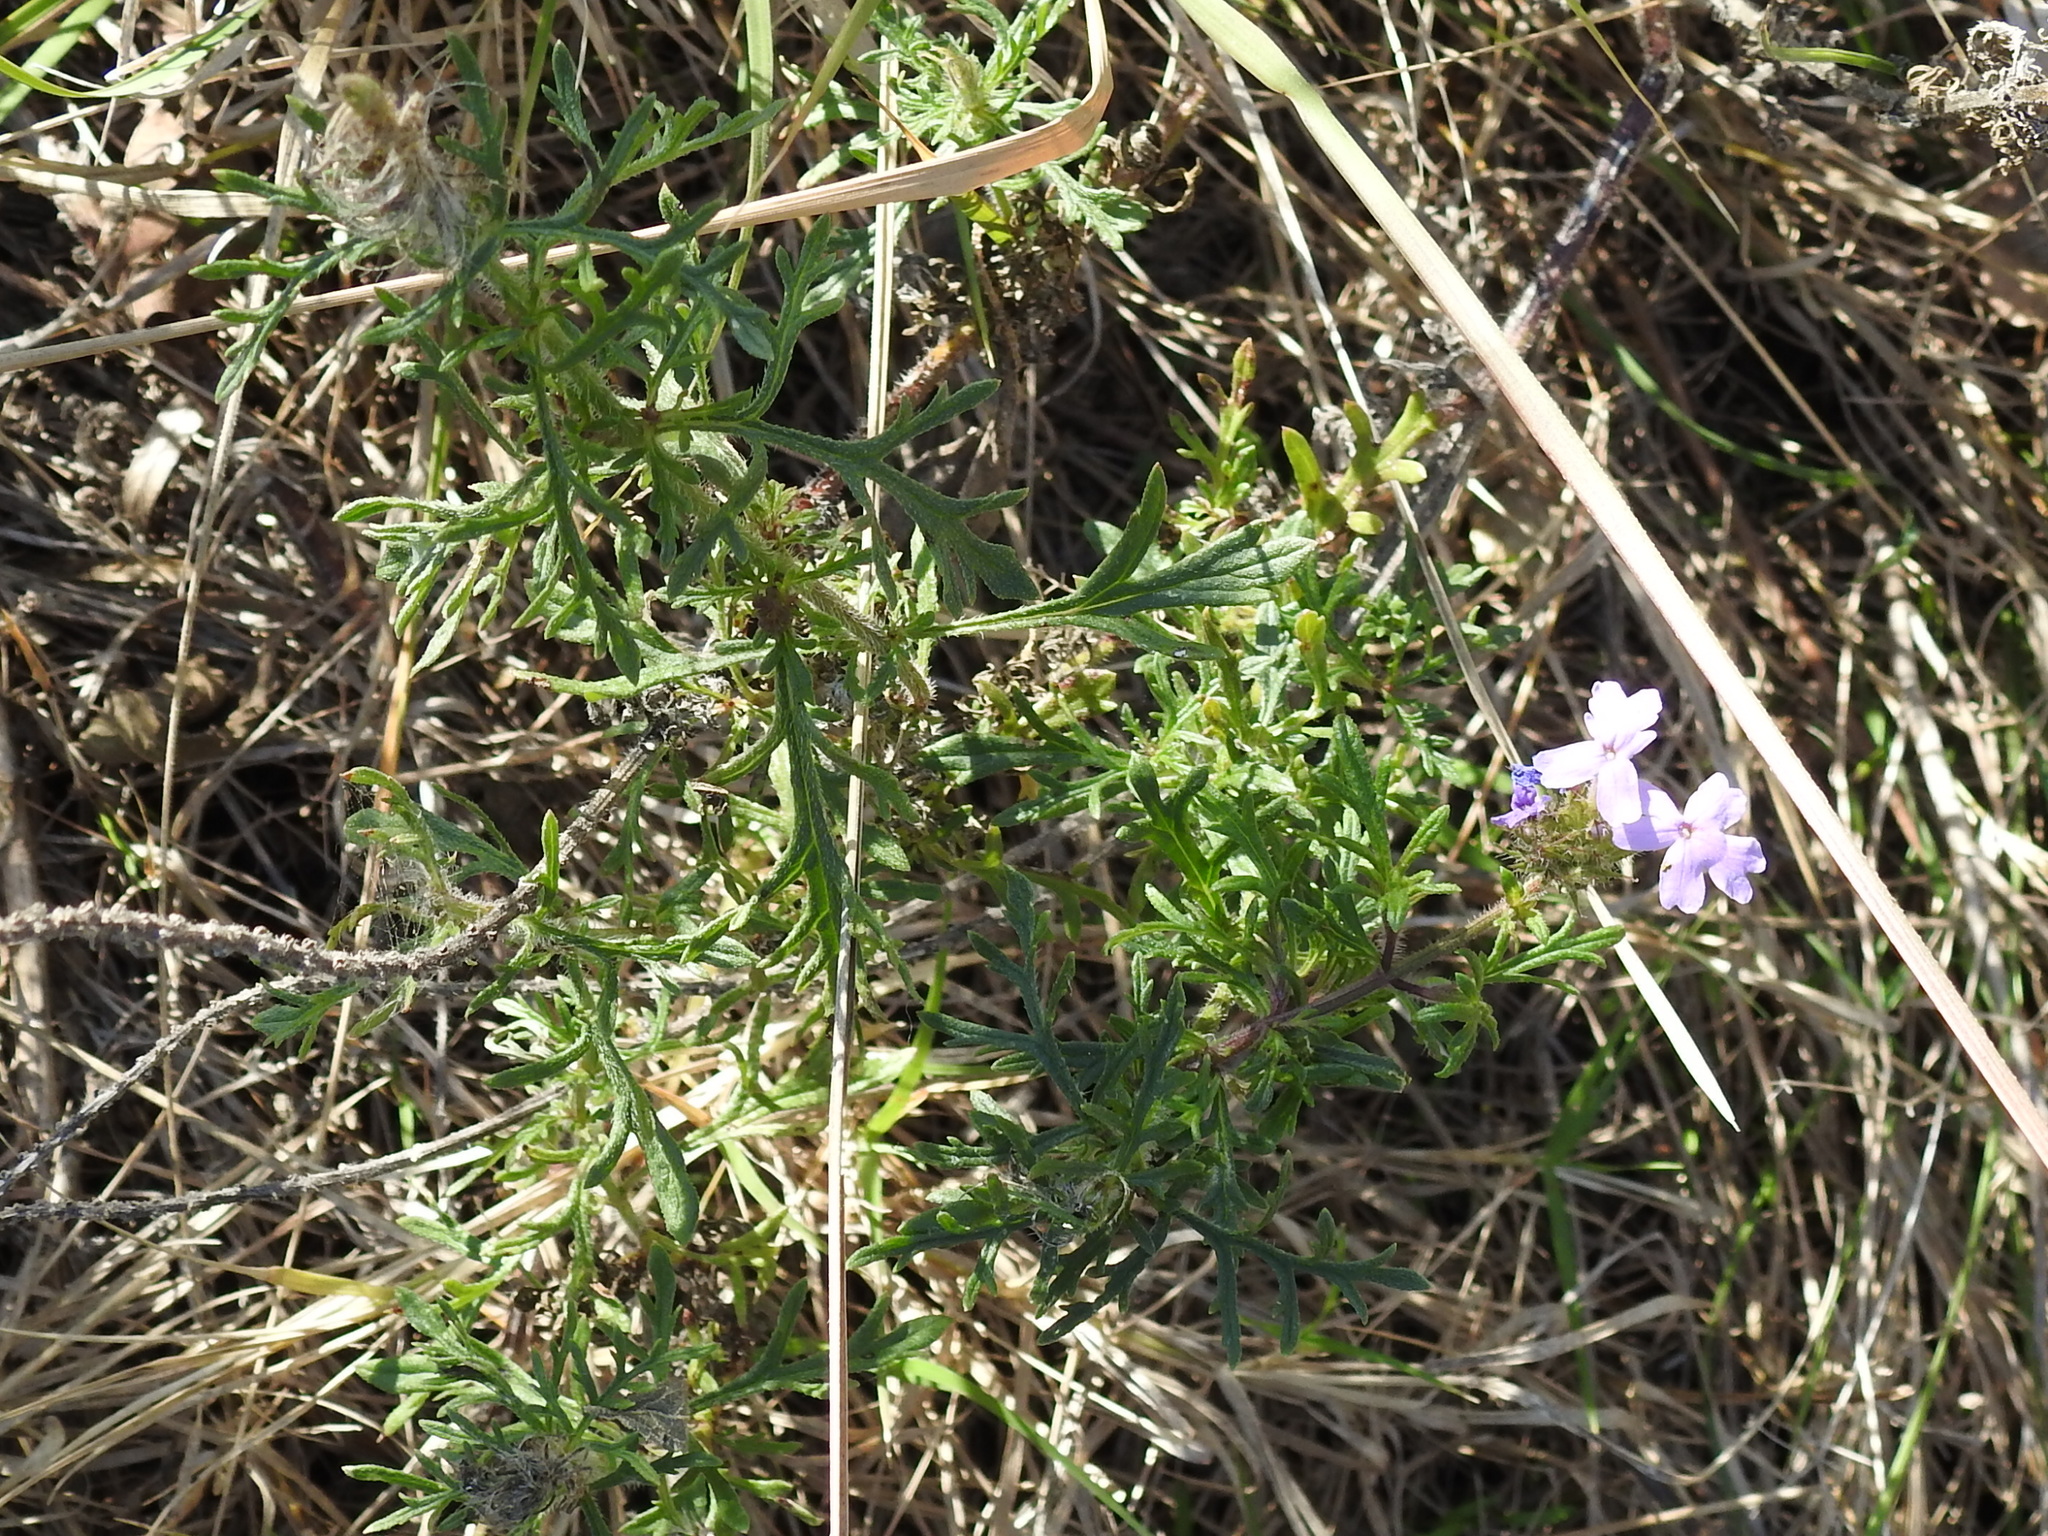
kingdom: Plantae
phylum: Tracheophyta
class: Magnoliopsida
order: Lamiales
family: Verbenaceae
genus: Verbena
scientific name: Verbena bipinnatifida
